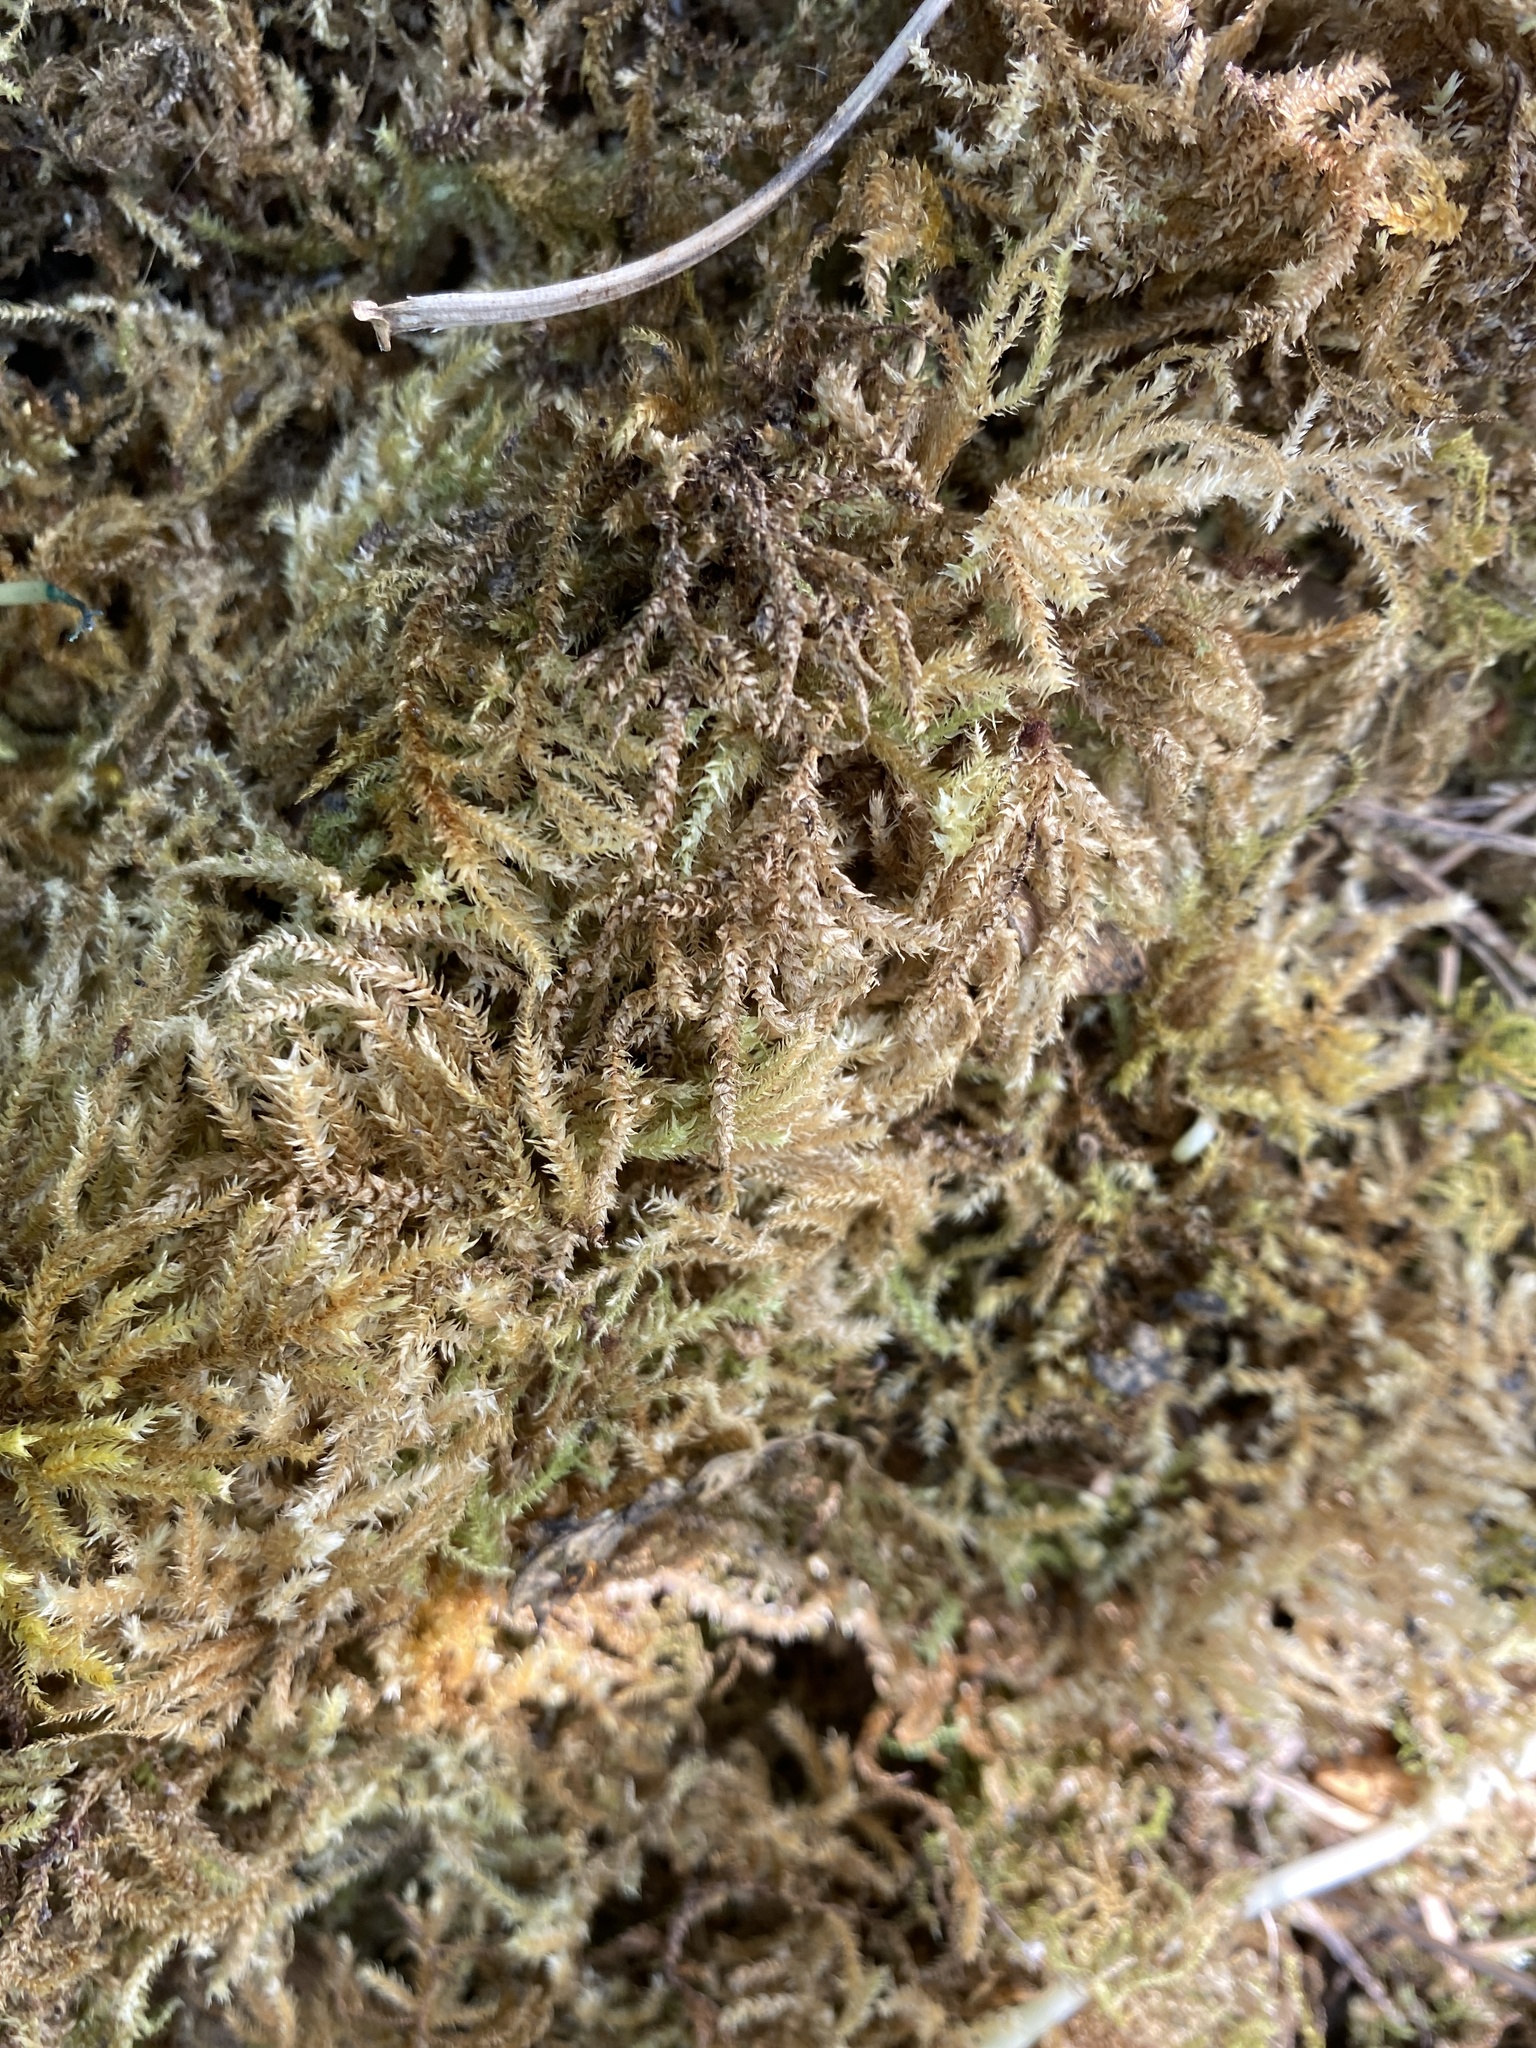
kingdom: Plantae
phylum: Bryophyta
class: Bryopsida
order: Hypnales
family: Hylocomiaceae
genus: Rhytidiadelphus
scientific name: Rhytidiadelphus loreus
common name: Lanky moss
